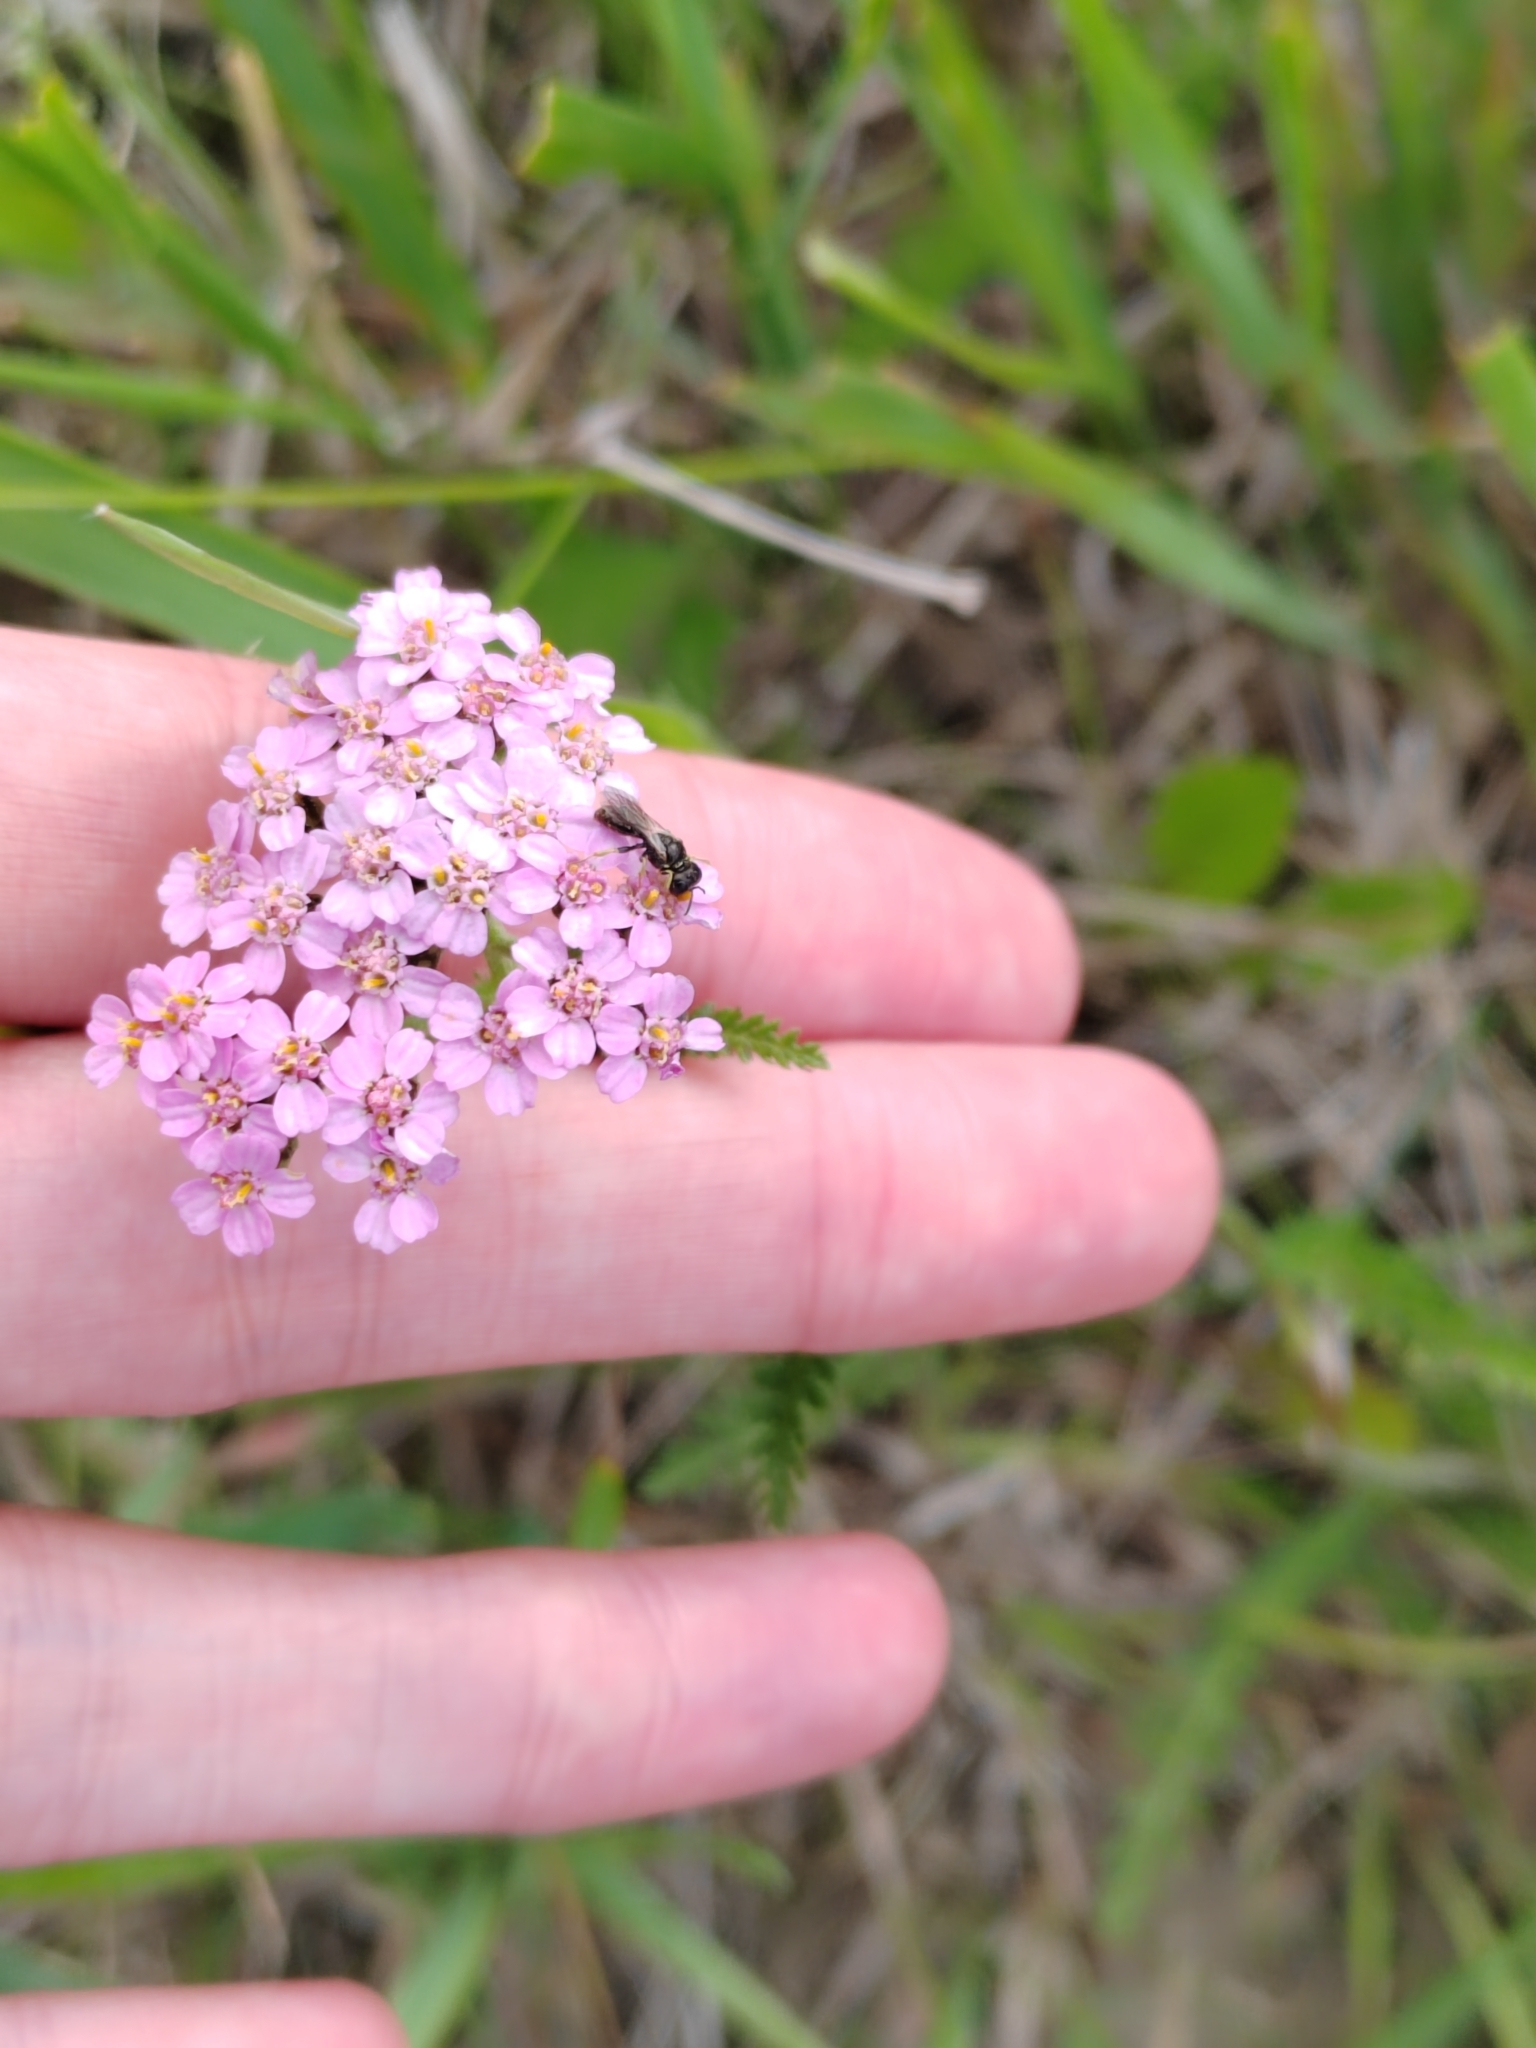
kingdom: Plantae
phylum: Tracheophyta
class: Magnoliopsida
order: Asterales
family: Asteraceae
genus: Achillea
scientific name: Achillea asiatica
